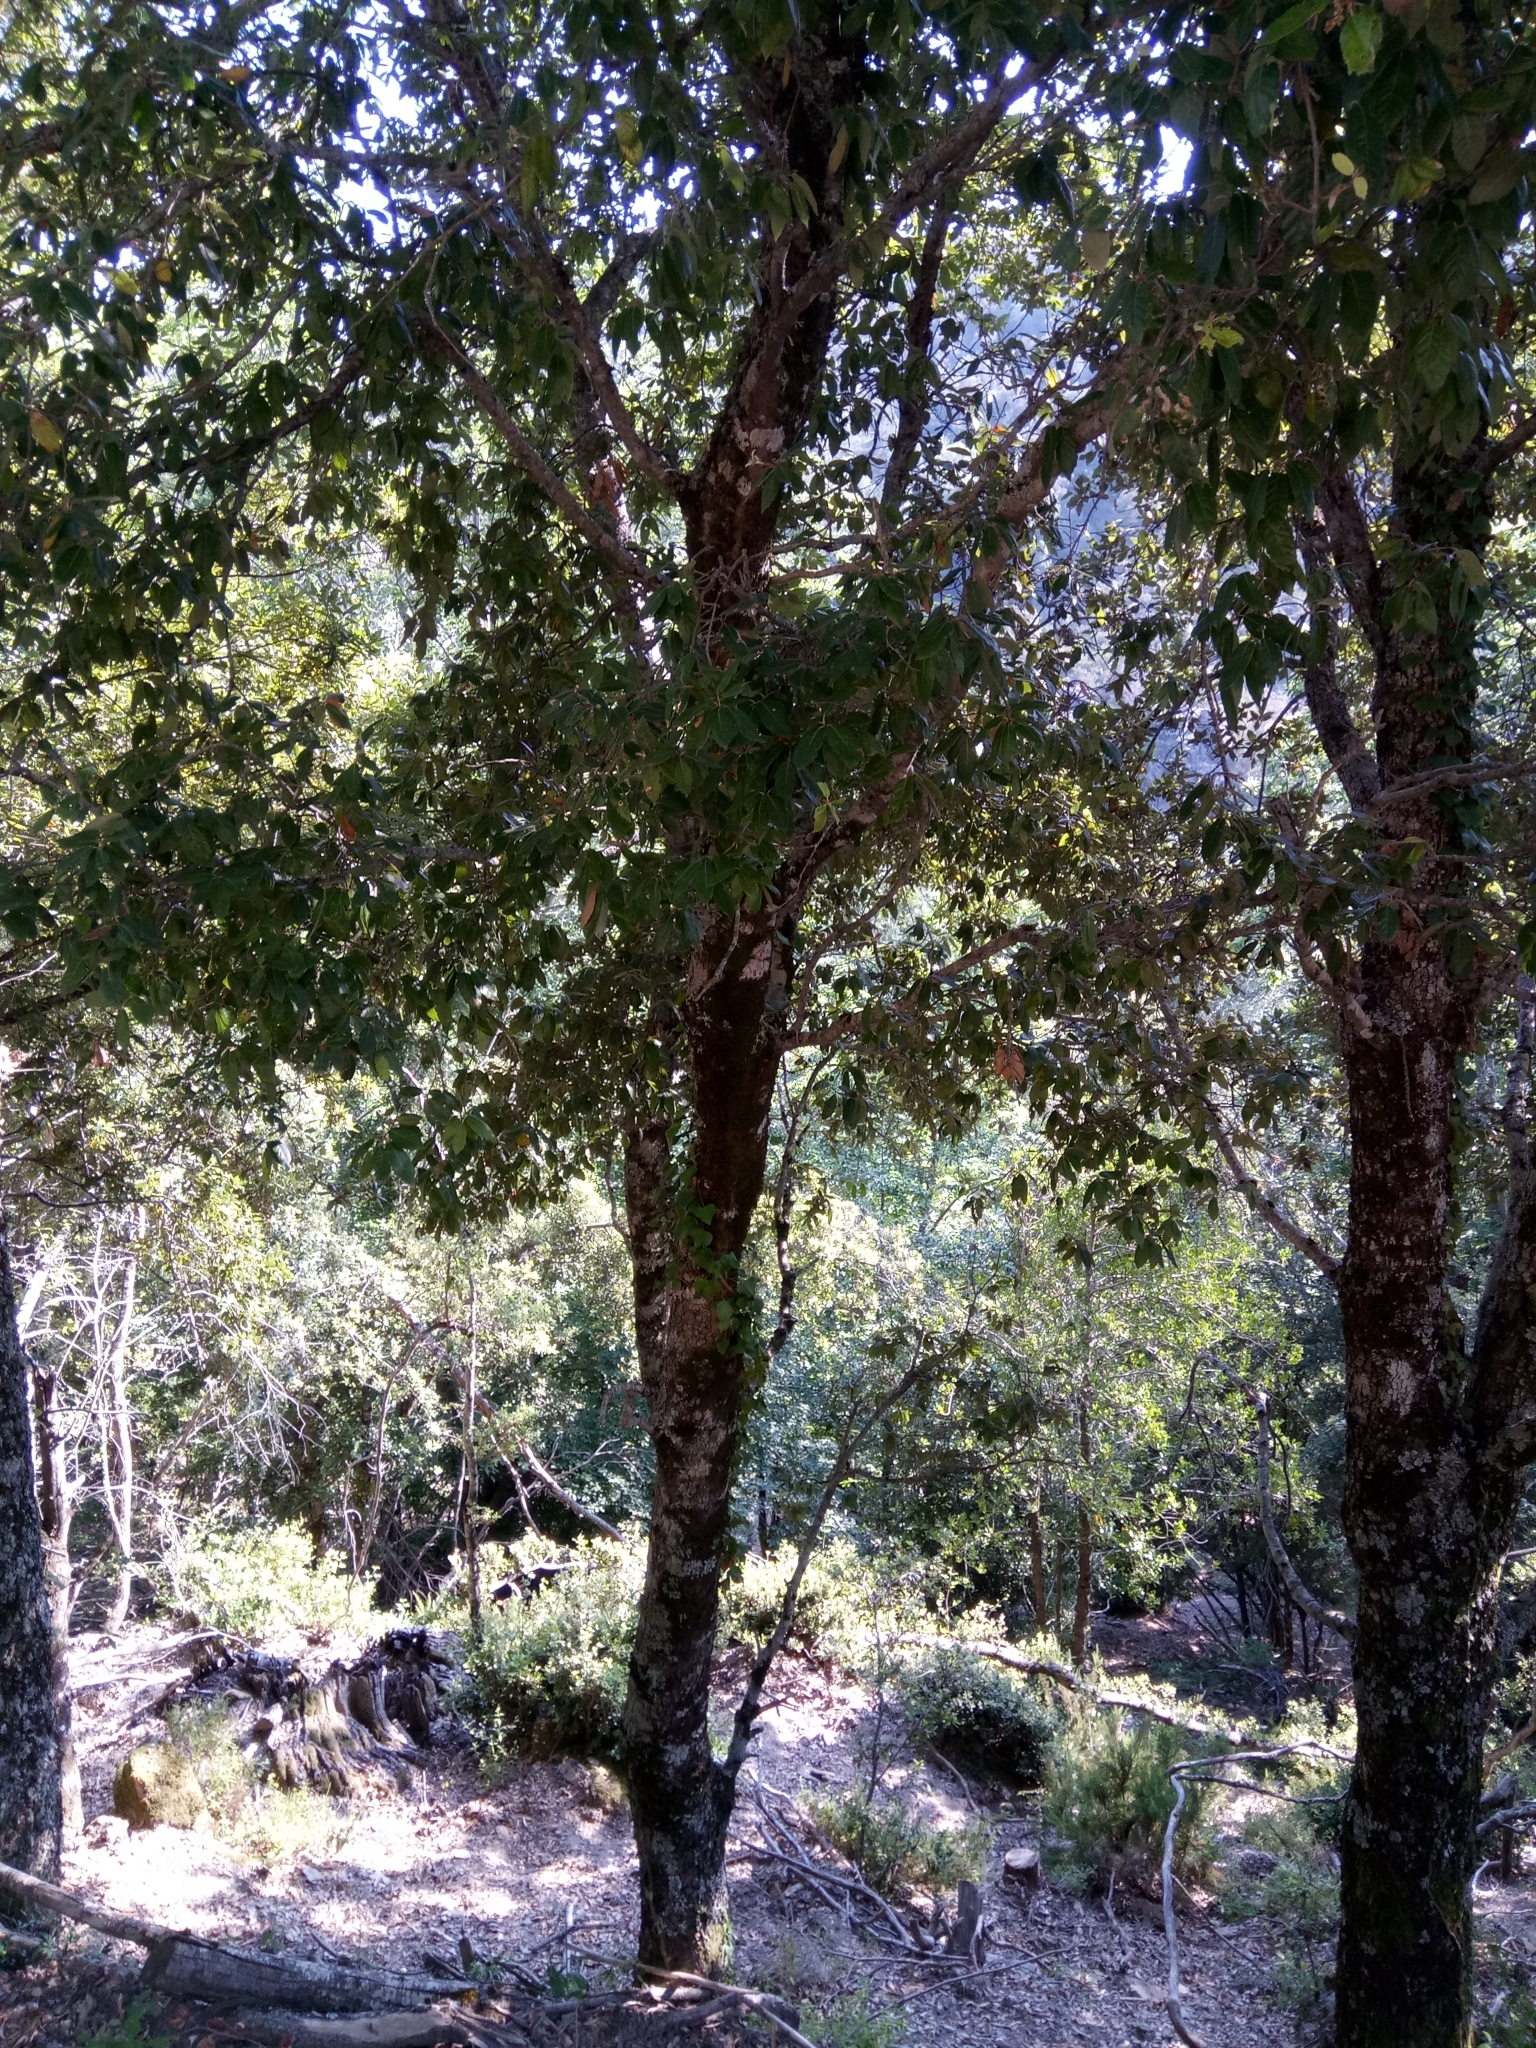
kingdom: Plantae
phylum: Tracheophyta
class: Magnoliopsida
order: Fagales
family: Fagaceae
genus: Quercus
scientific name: Quercus ilex
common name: Evergreen oak
